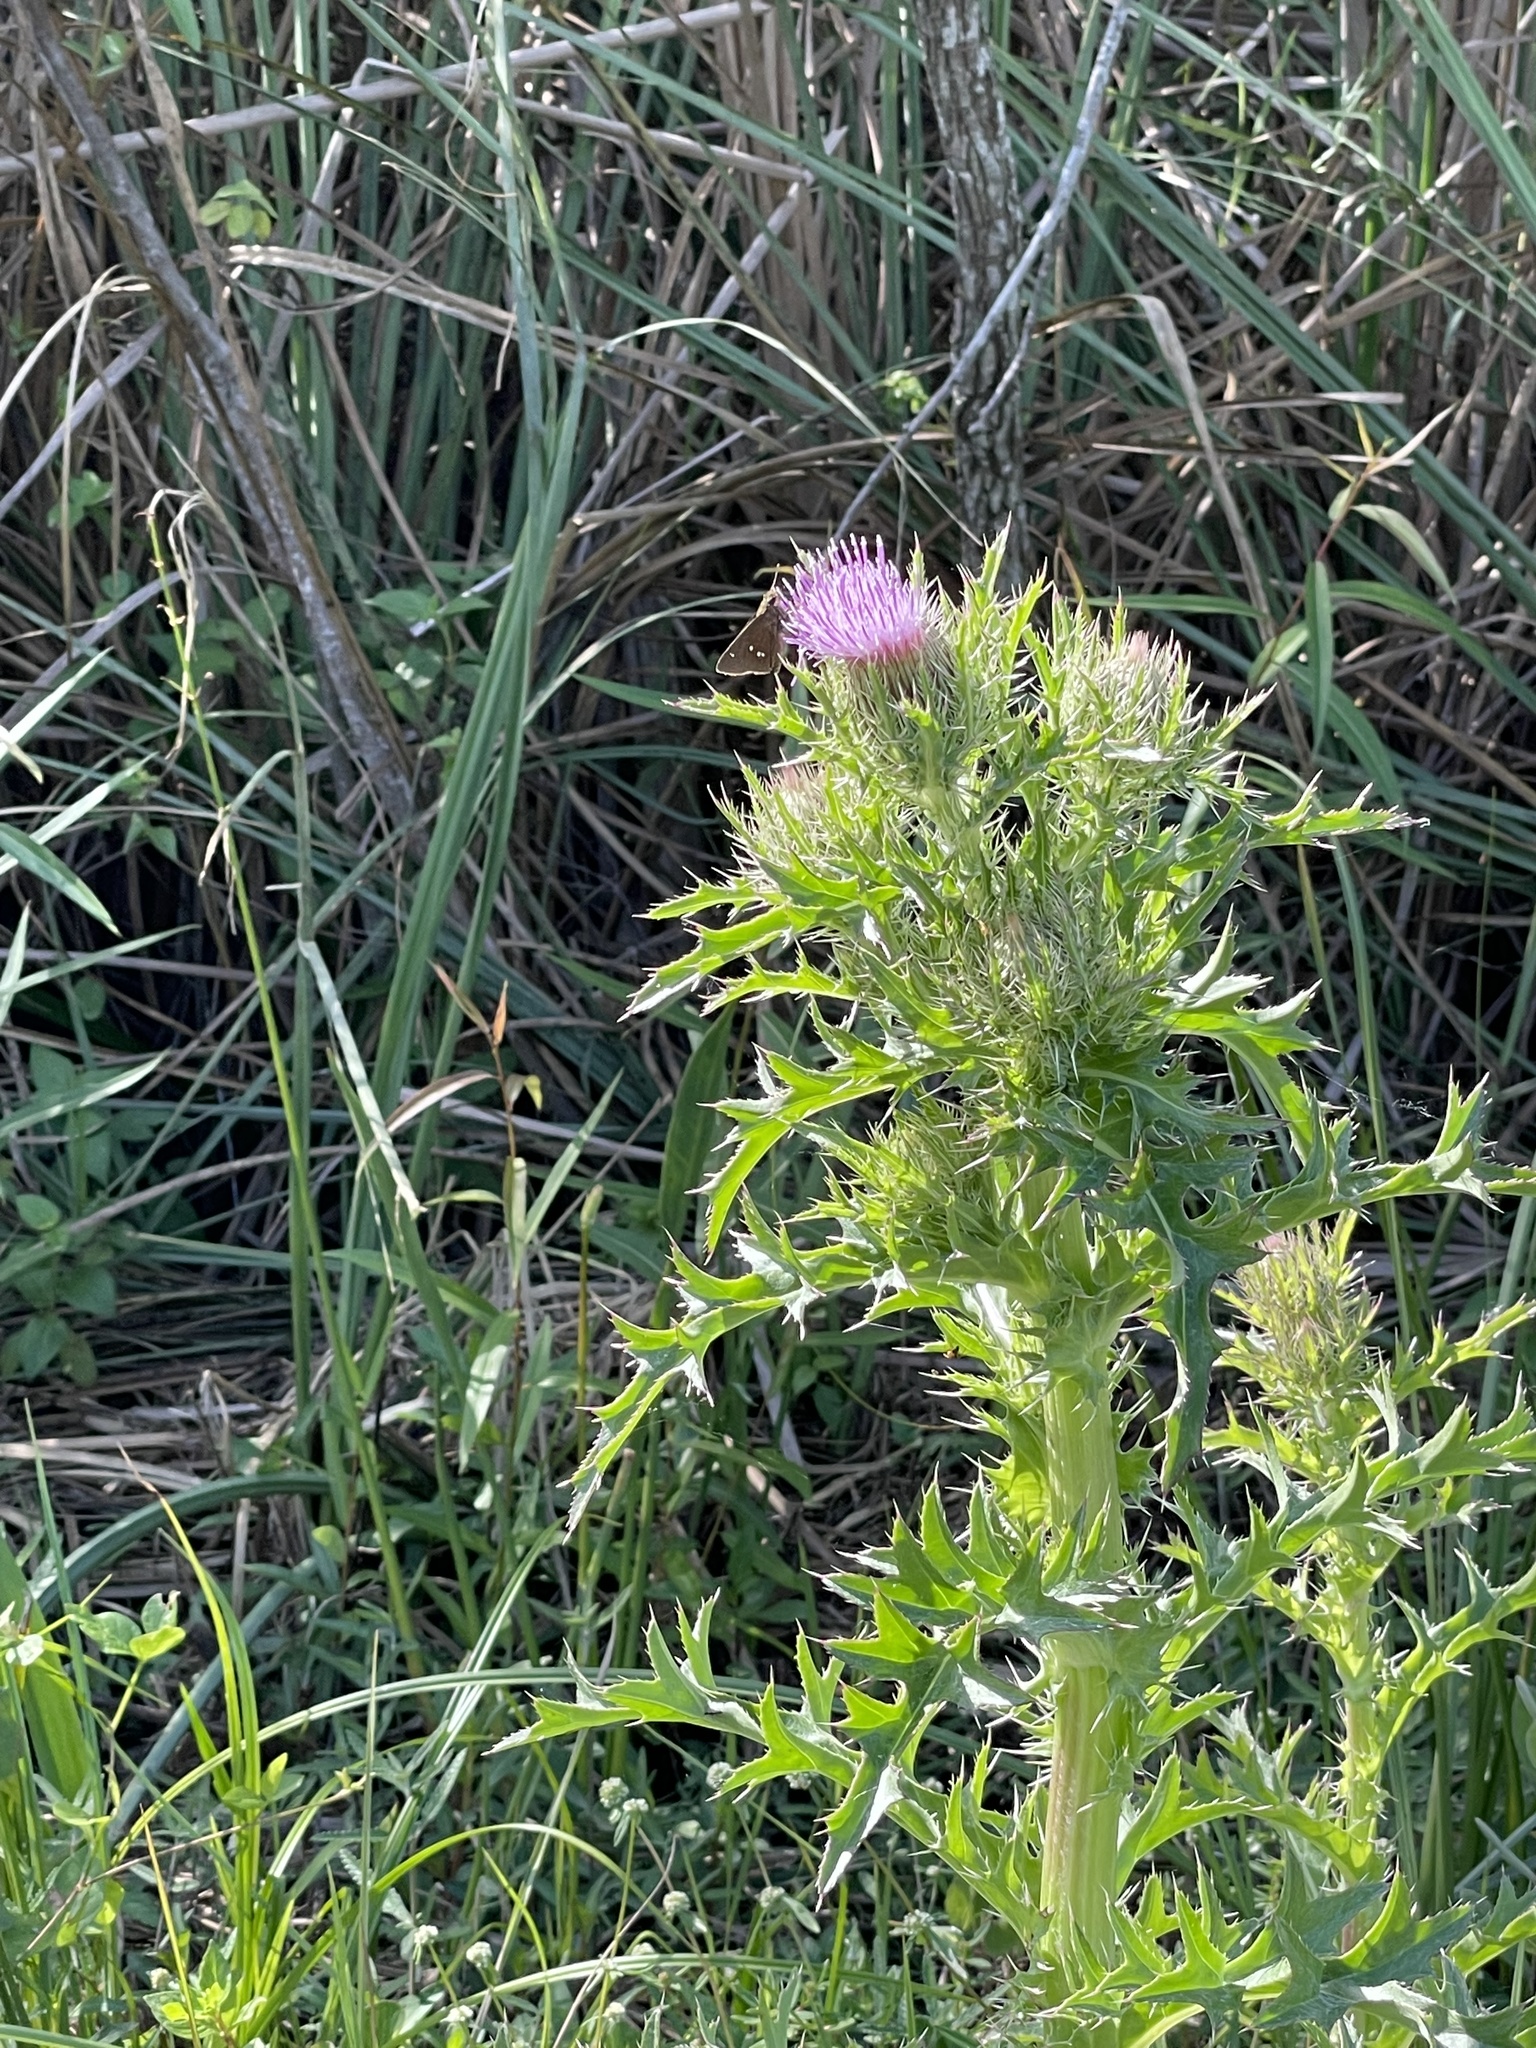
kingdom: Animalia
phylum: Arthropoda
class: Insecta
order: Lepidoptera
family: Hesperiidae
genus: Oligoria
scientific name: Oligoria maculata
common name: Twin-spot skipper
